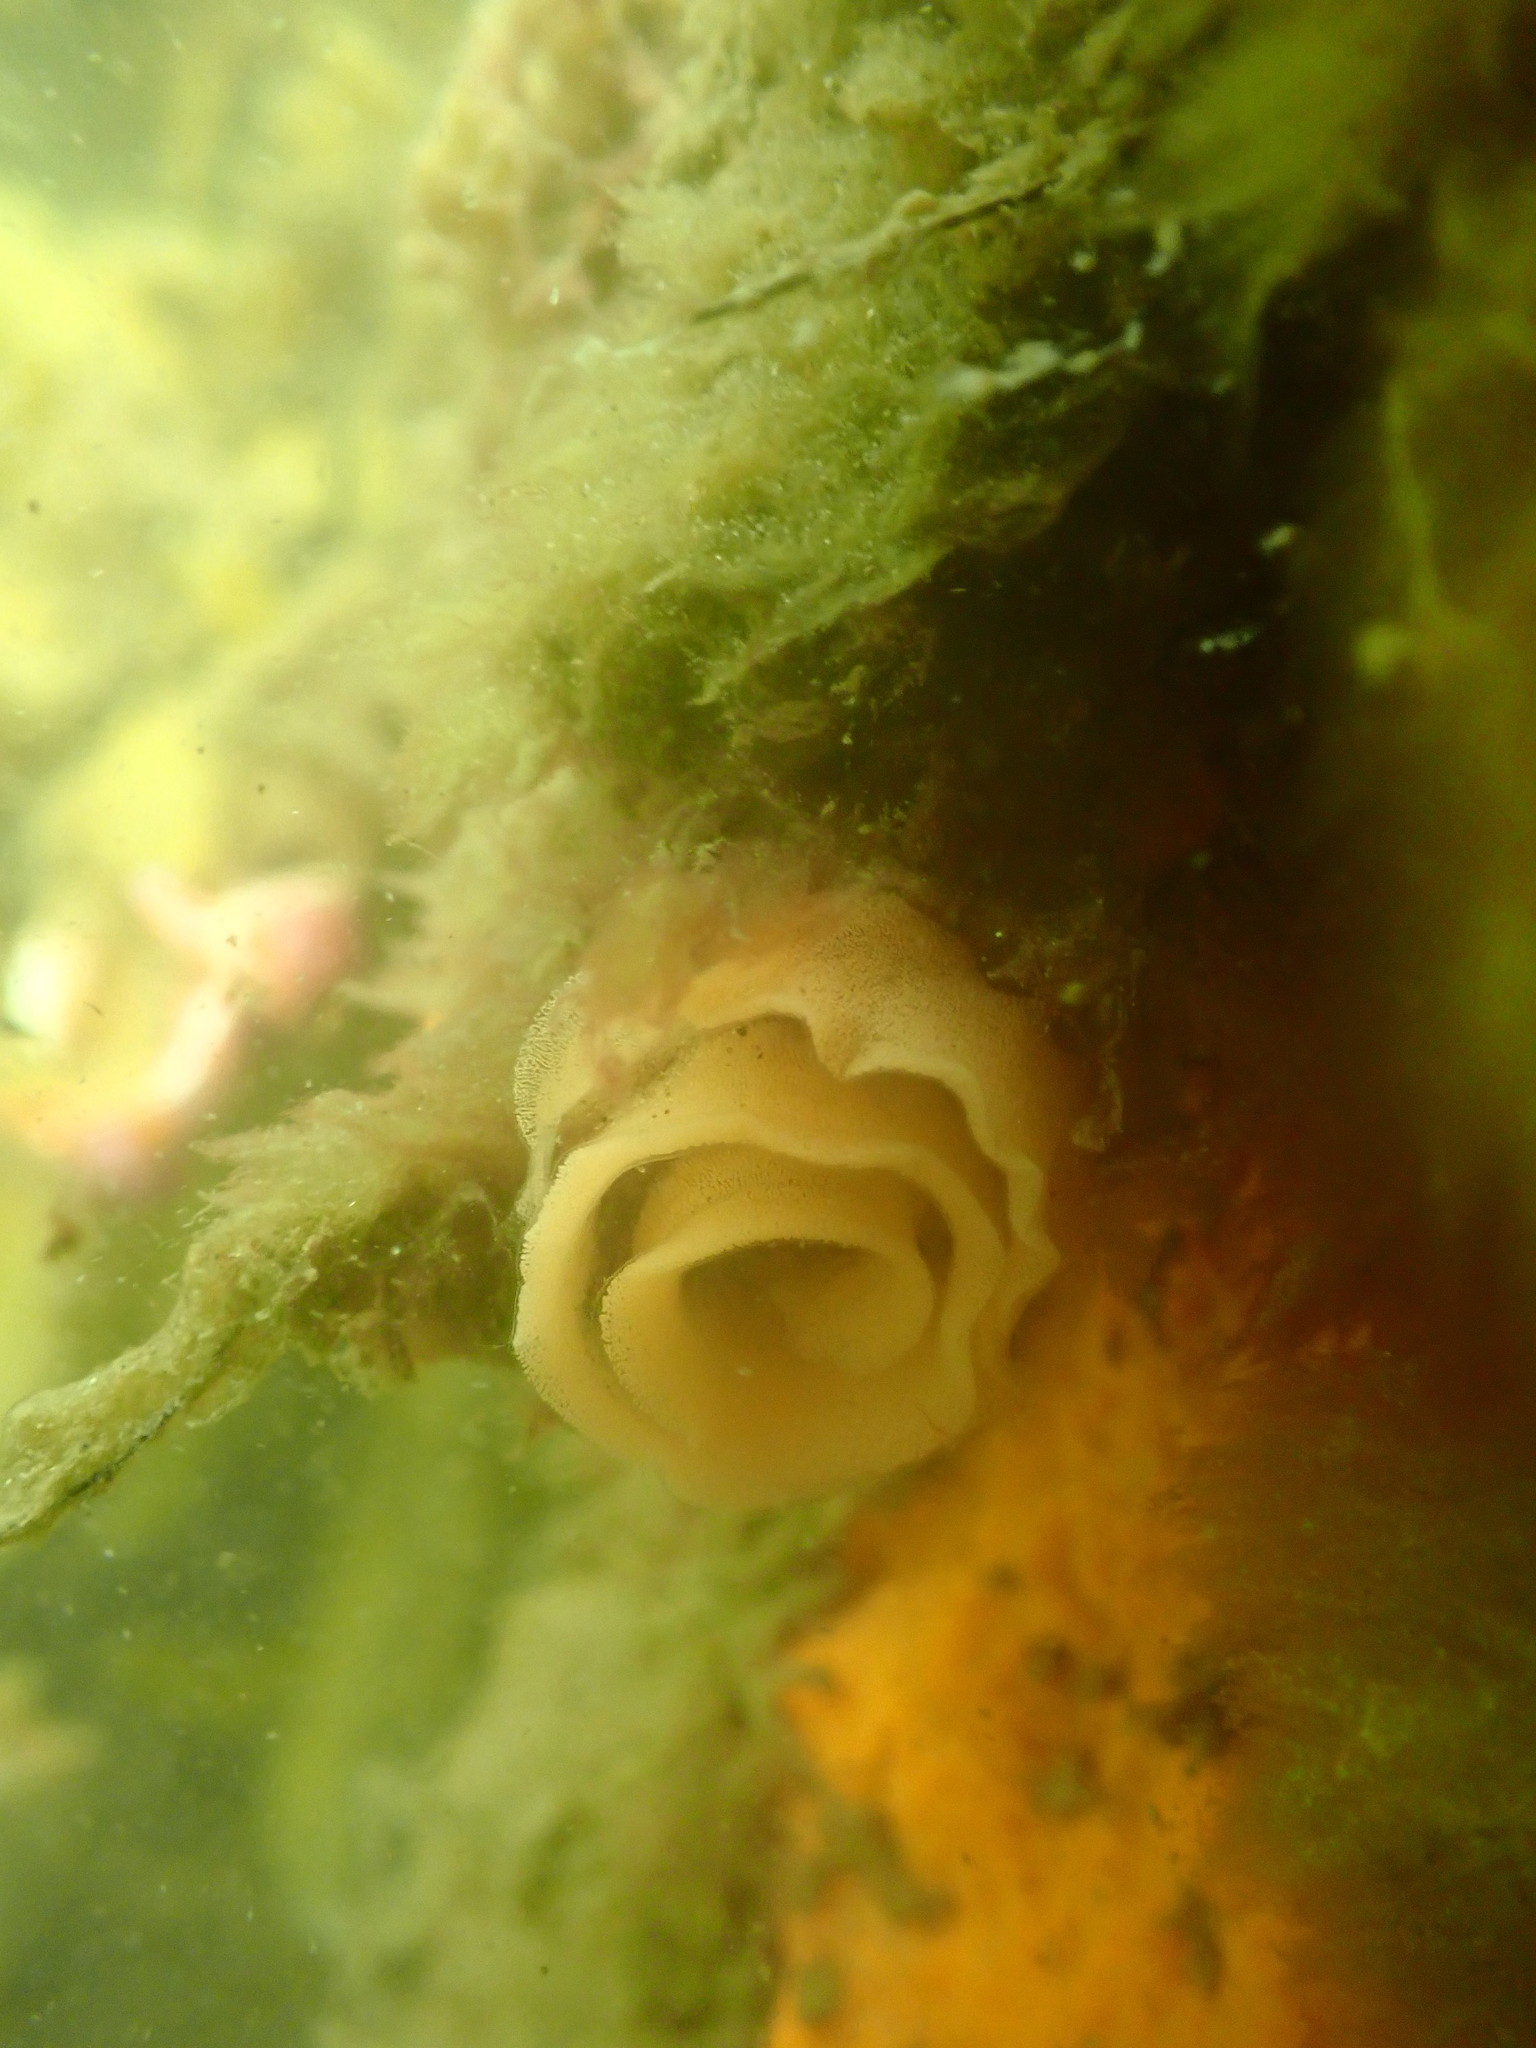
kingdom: Animalia
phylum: Mollusca
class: Gastropoda
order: Nudibranchia
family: Chromodorididae
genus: Ceratosoma
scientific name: Ceratosoma amoenum
